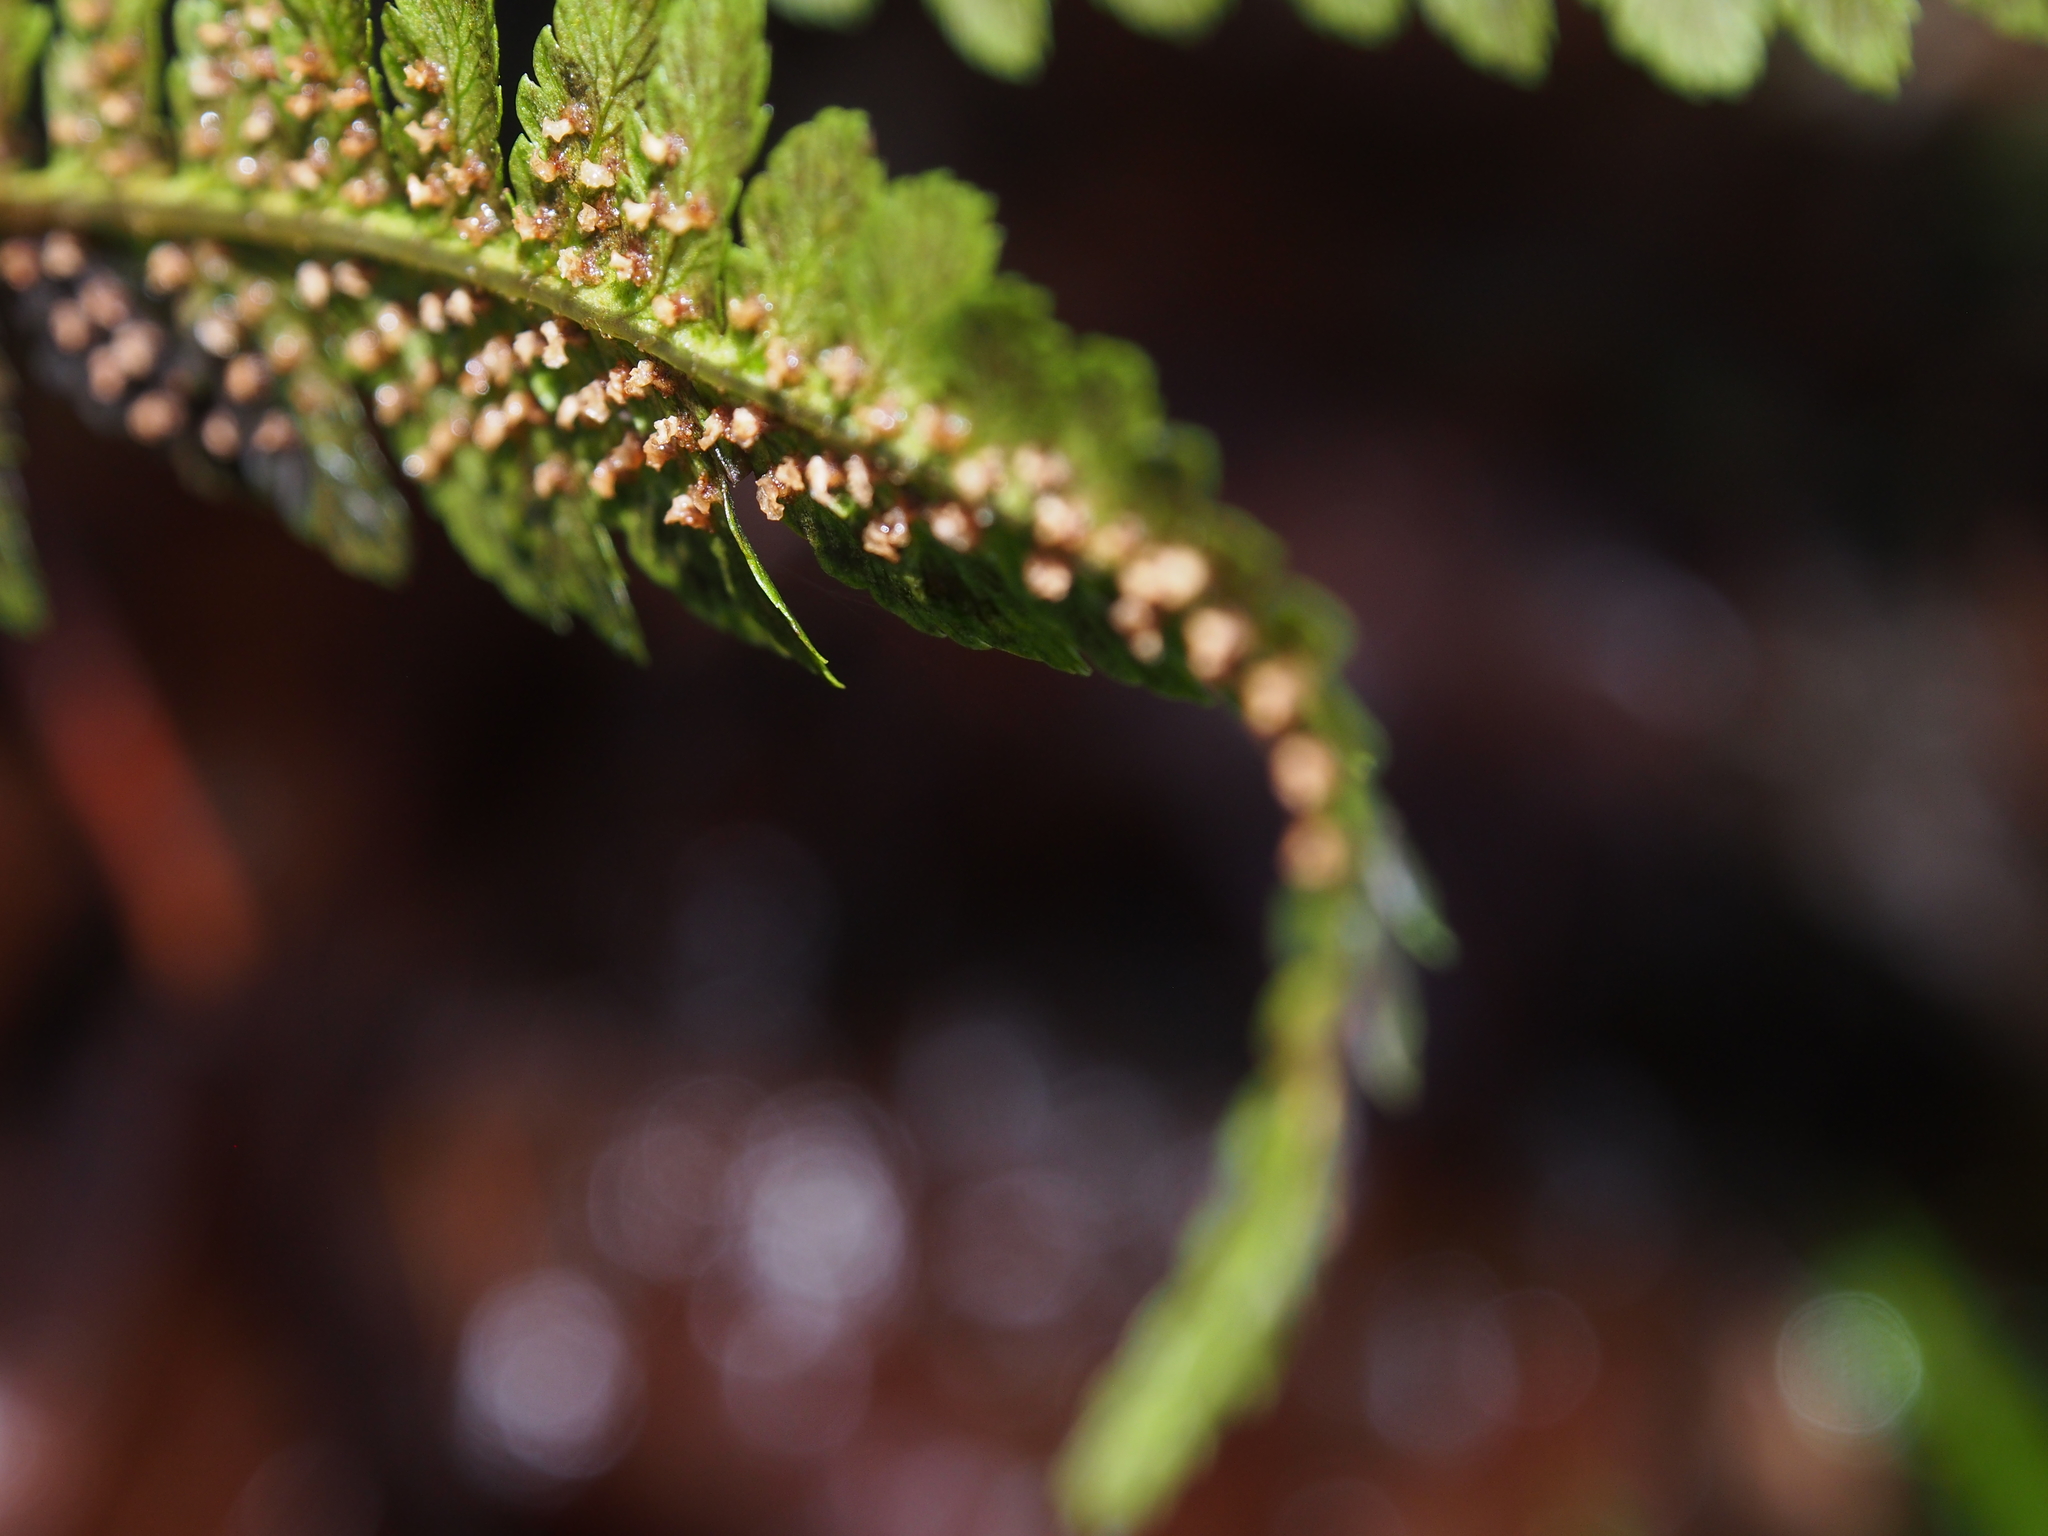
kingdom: Plantae
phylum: Tracheophyta
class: Polypodiopsida
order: Polypodiales
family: Dryopteridaceae
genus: Dryopteris
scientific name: Dryopteris filix-mas
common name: Male fern
